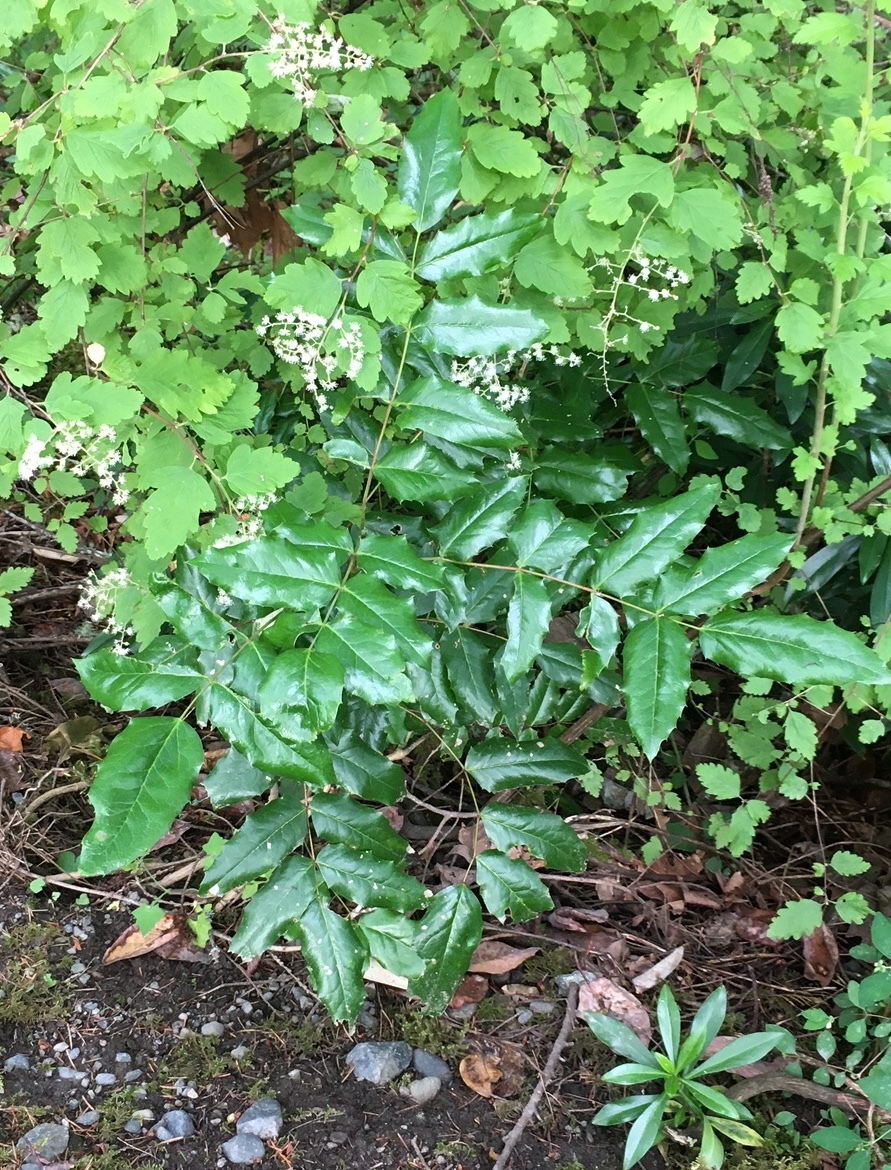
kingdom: Plantae
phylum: Tracheophyta
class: Magnoliopsida
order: Ranunculales
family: Berberidaceae
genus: Mahonia
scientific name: Mahonia aquifolium
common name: Oregon-grape
